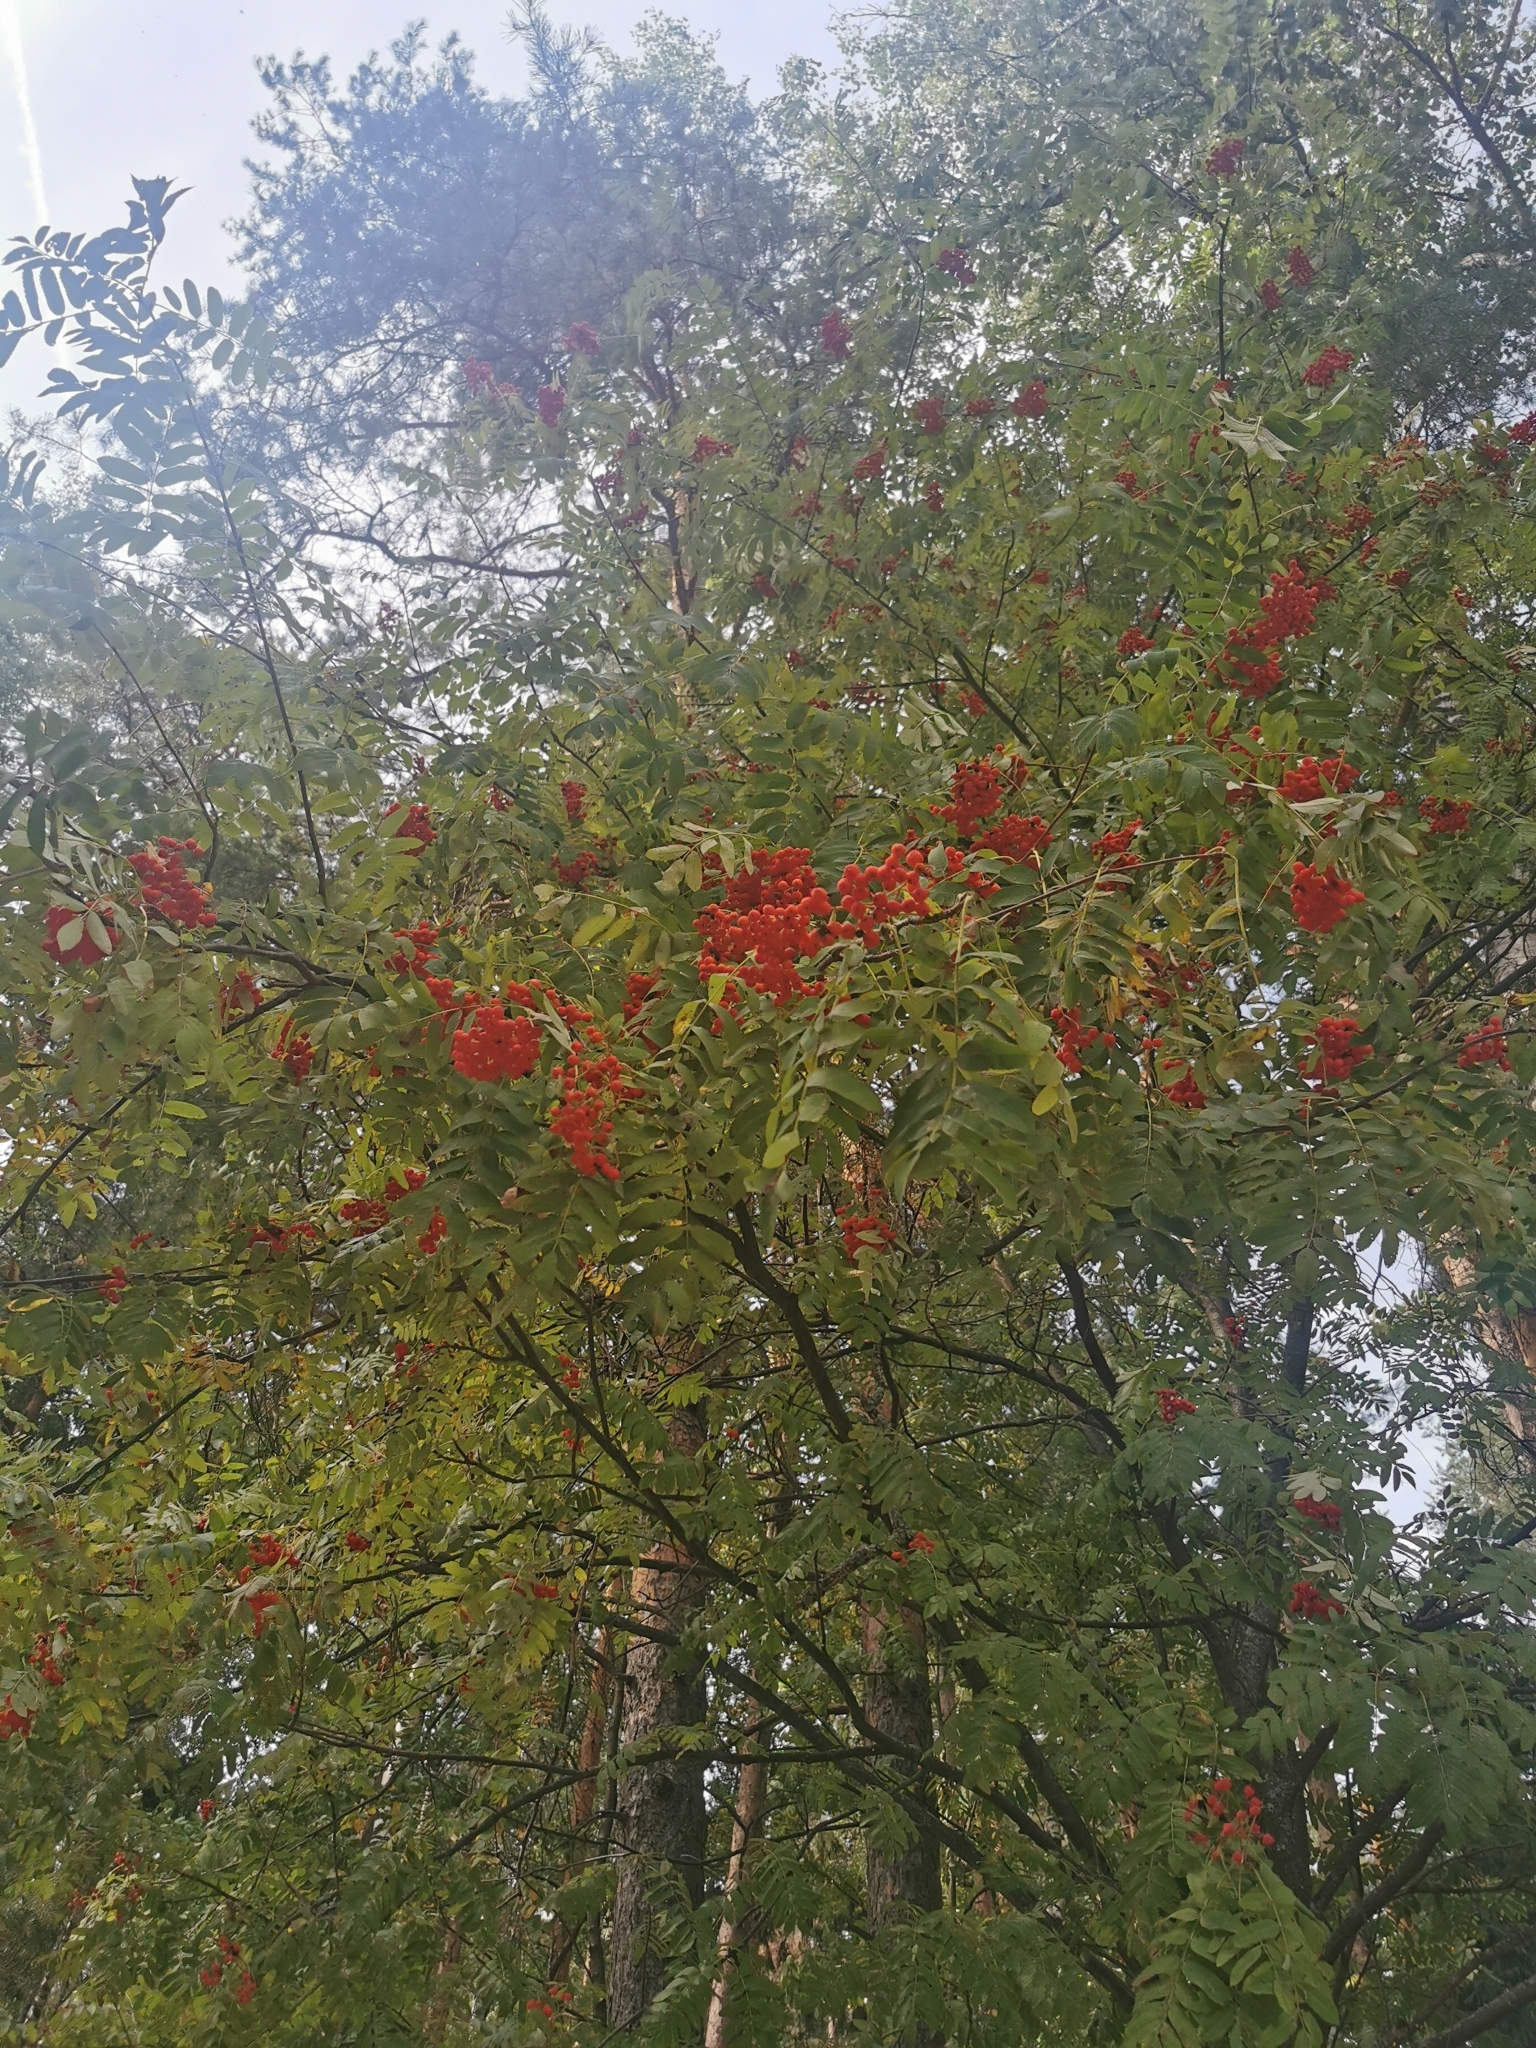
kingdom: Plantae
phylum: Tracheophyta
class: Magnoliopsida
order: Rosales
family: Rosaceae
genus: Sorbus
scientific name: Sorbus aucuparia
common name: Rowan
